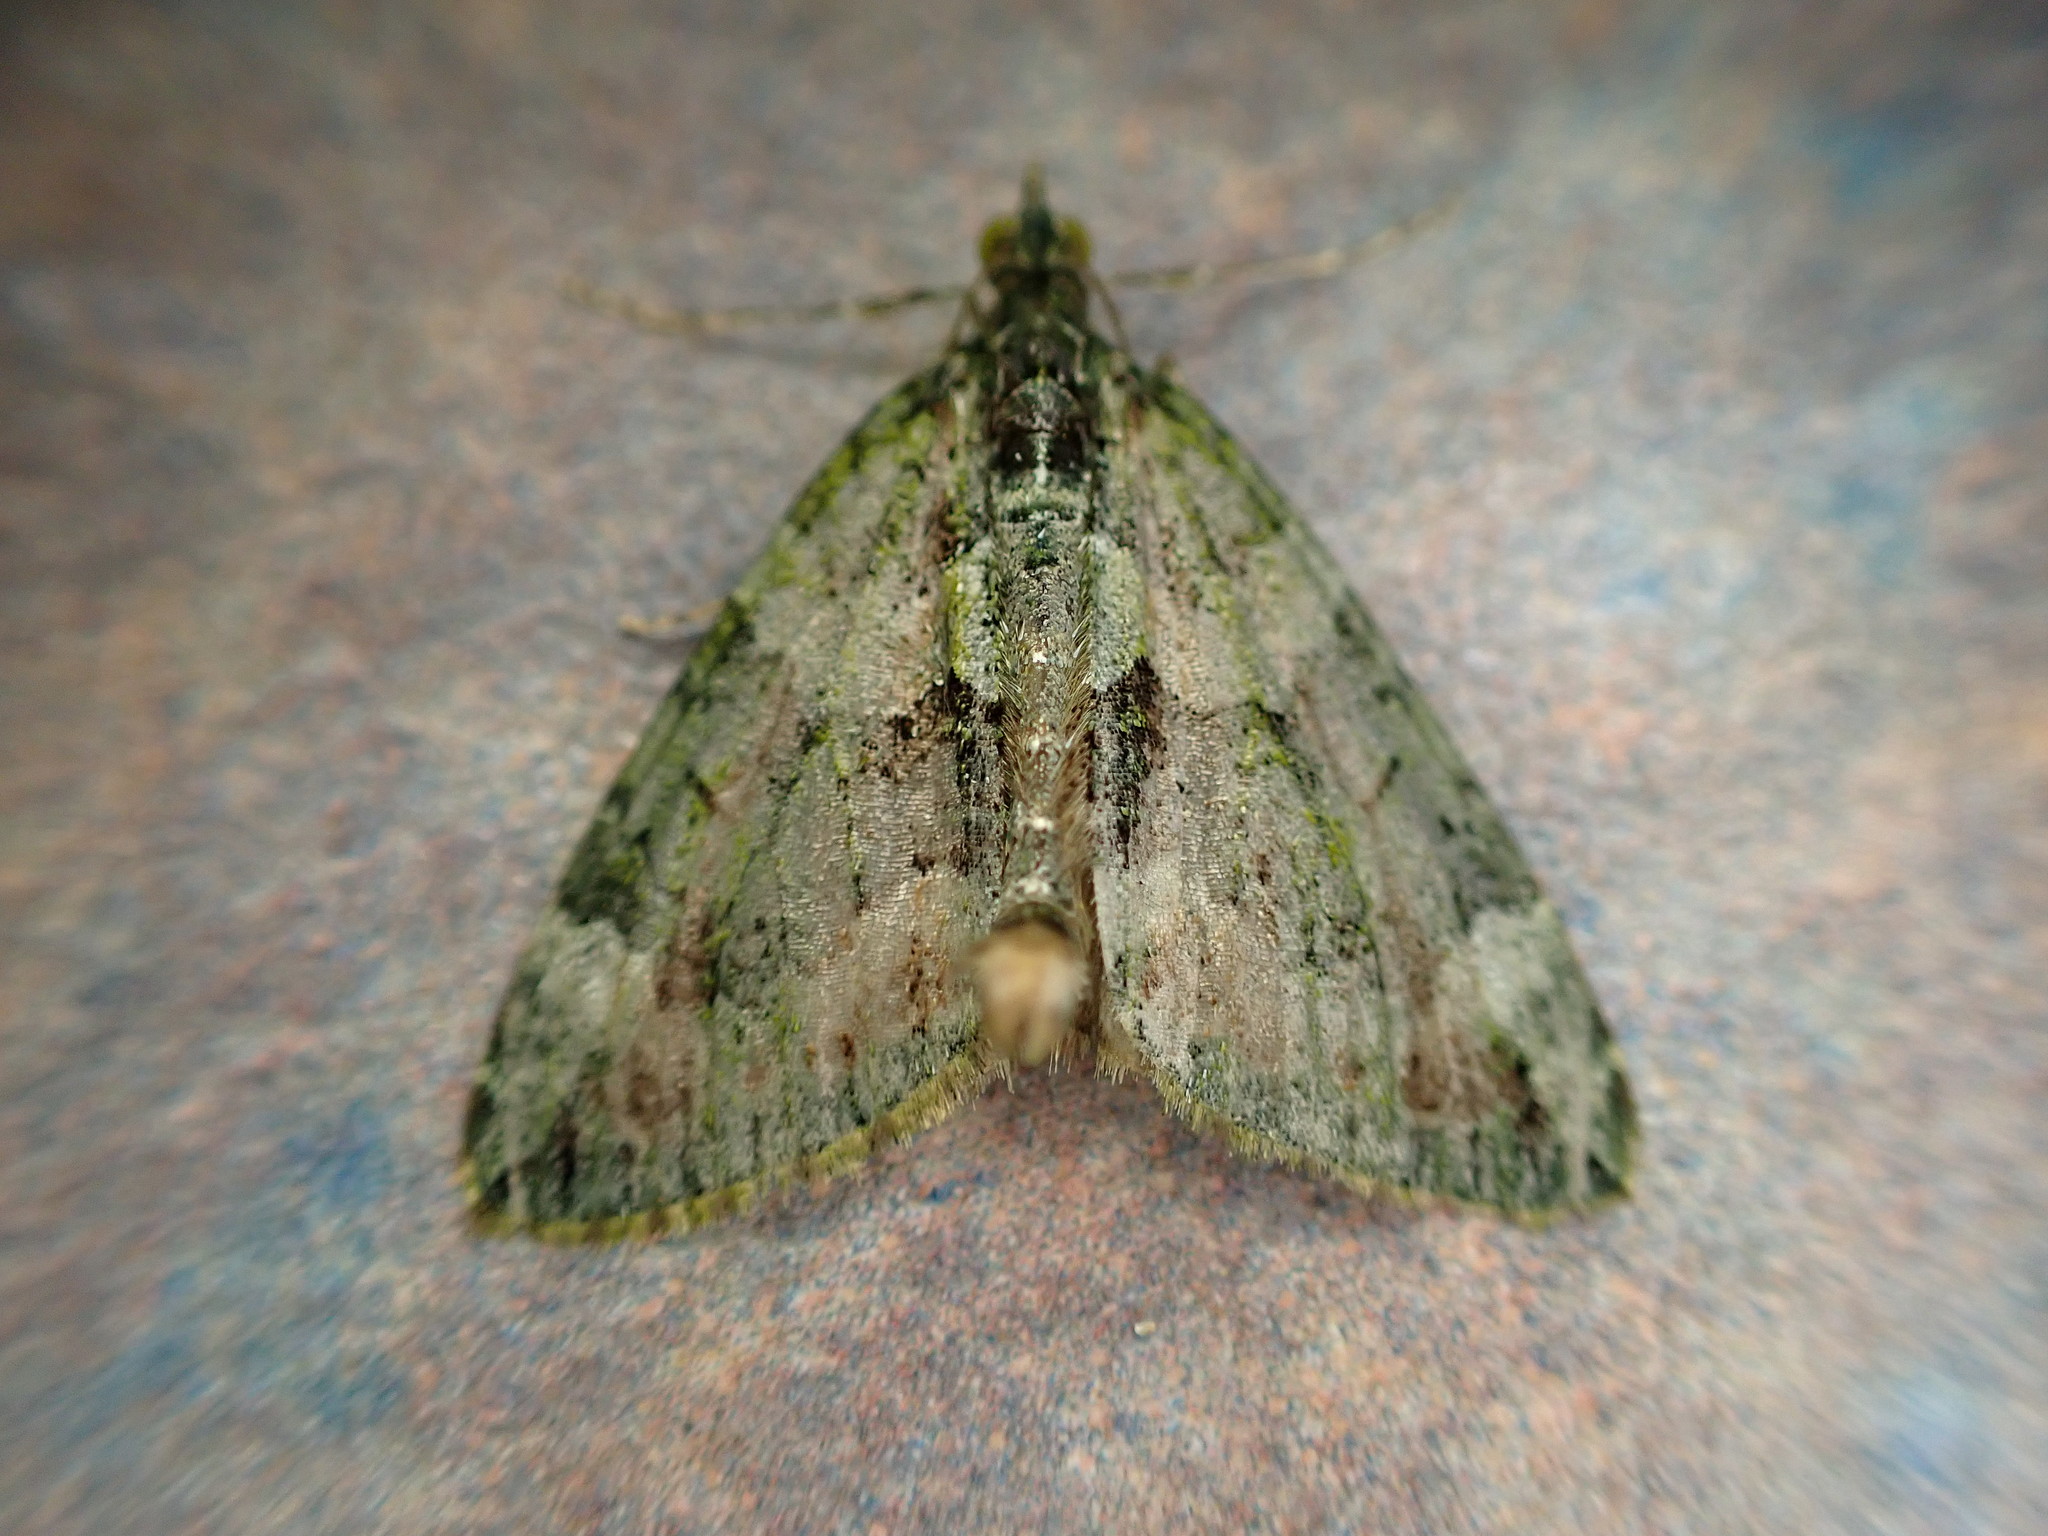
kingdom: Animalia
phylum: Arthropoda
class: Insecta
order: Lepidoptera
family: Geometridae
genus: Chloroclysta
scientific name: Chloroclysta siterata
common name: Red-green carpet
